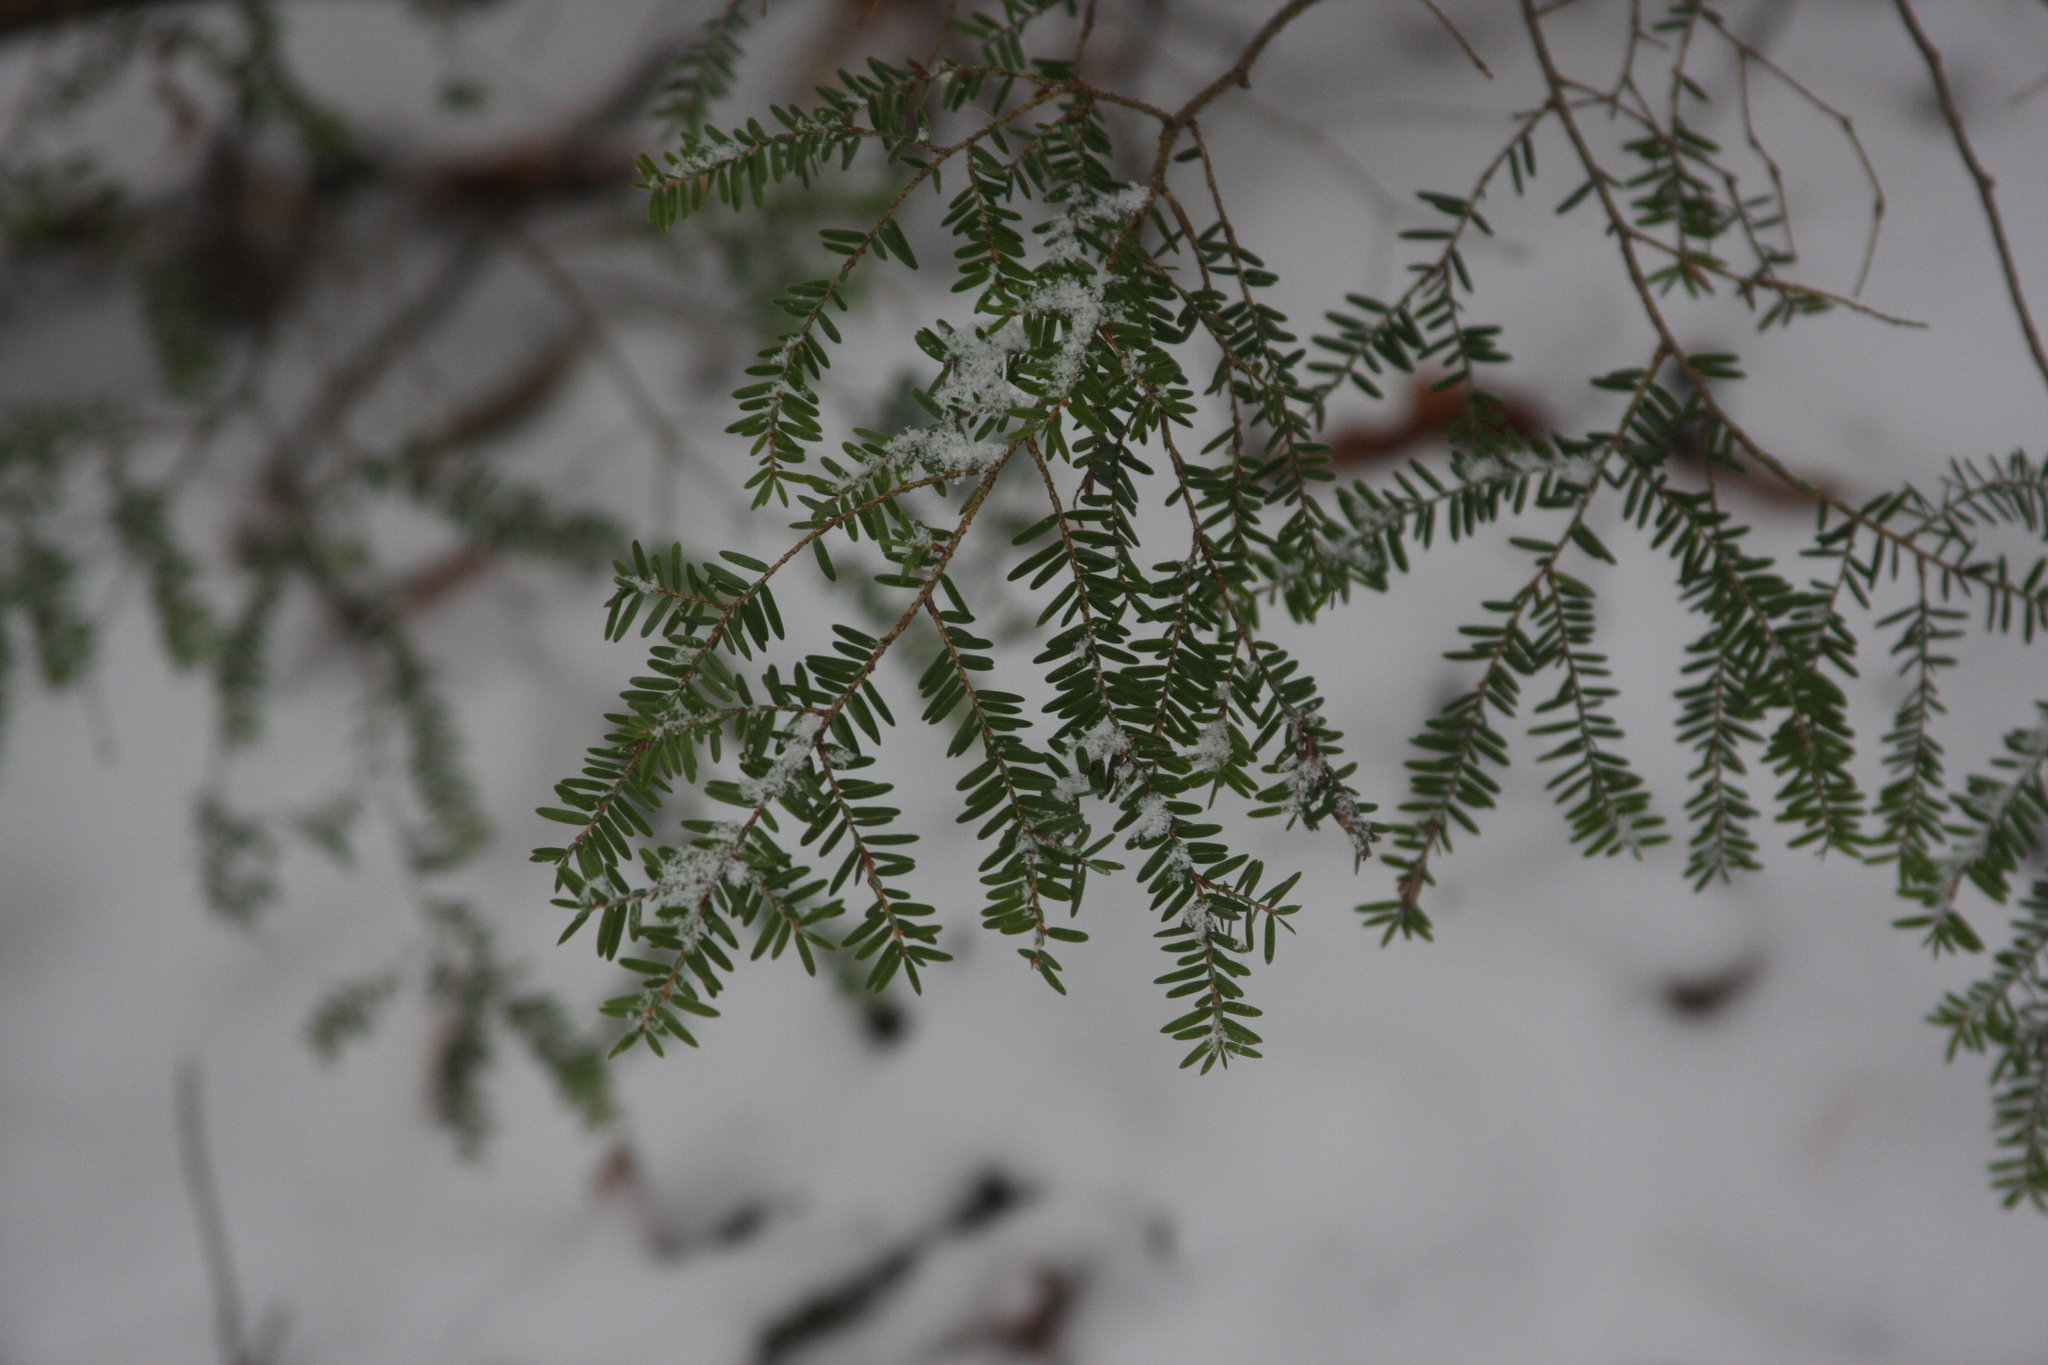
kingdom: Plantae
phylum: Tracheophyta
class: Pinopsida
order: Pinales
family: Pinaceae
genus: Tsuga
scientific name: Tsuga canadensis
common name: Eastern hemlock
